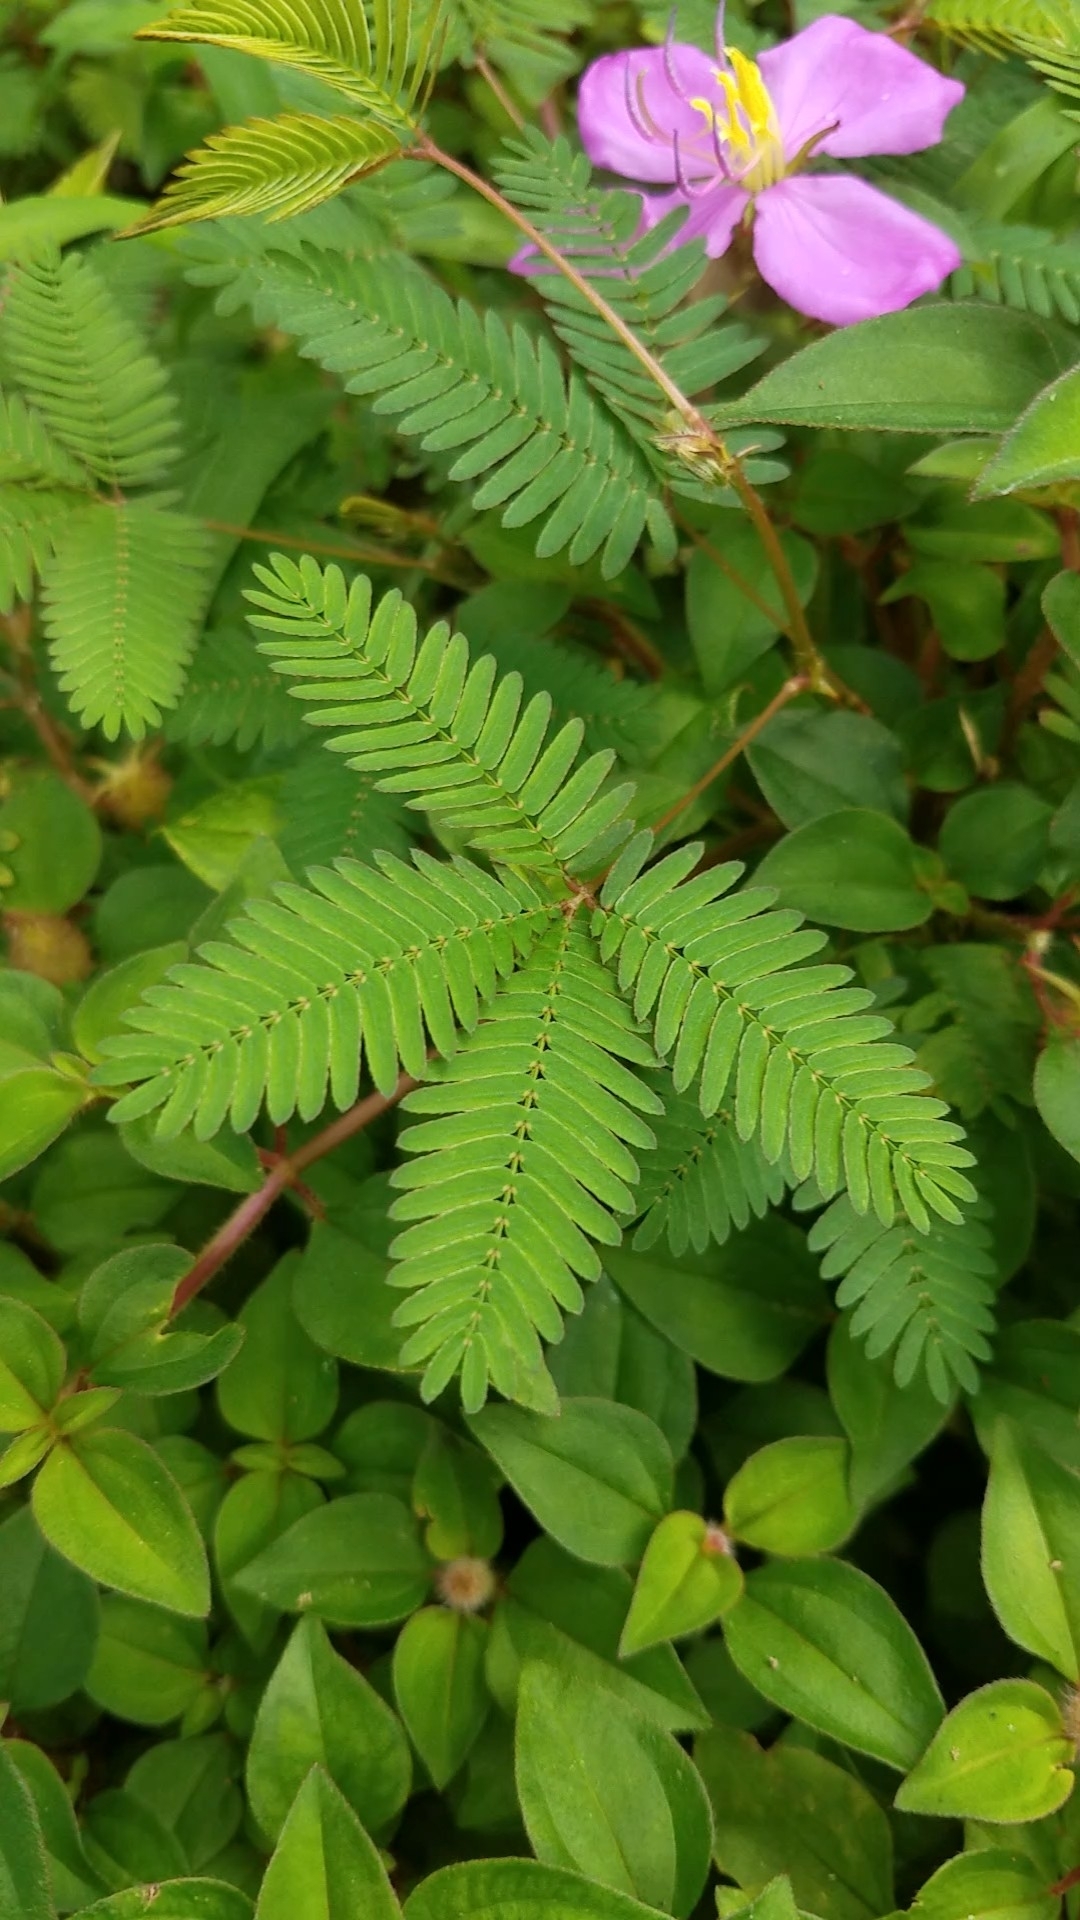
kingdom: Plantae
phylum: Tracheophyta
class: Magnoliopsida
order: Fabales
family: Fabaceae
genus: Mimosa
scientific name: Mimosa pudica
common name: Sensitive plant
